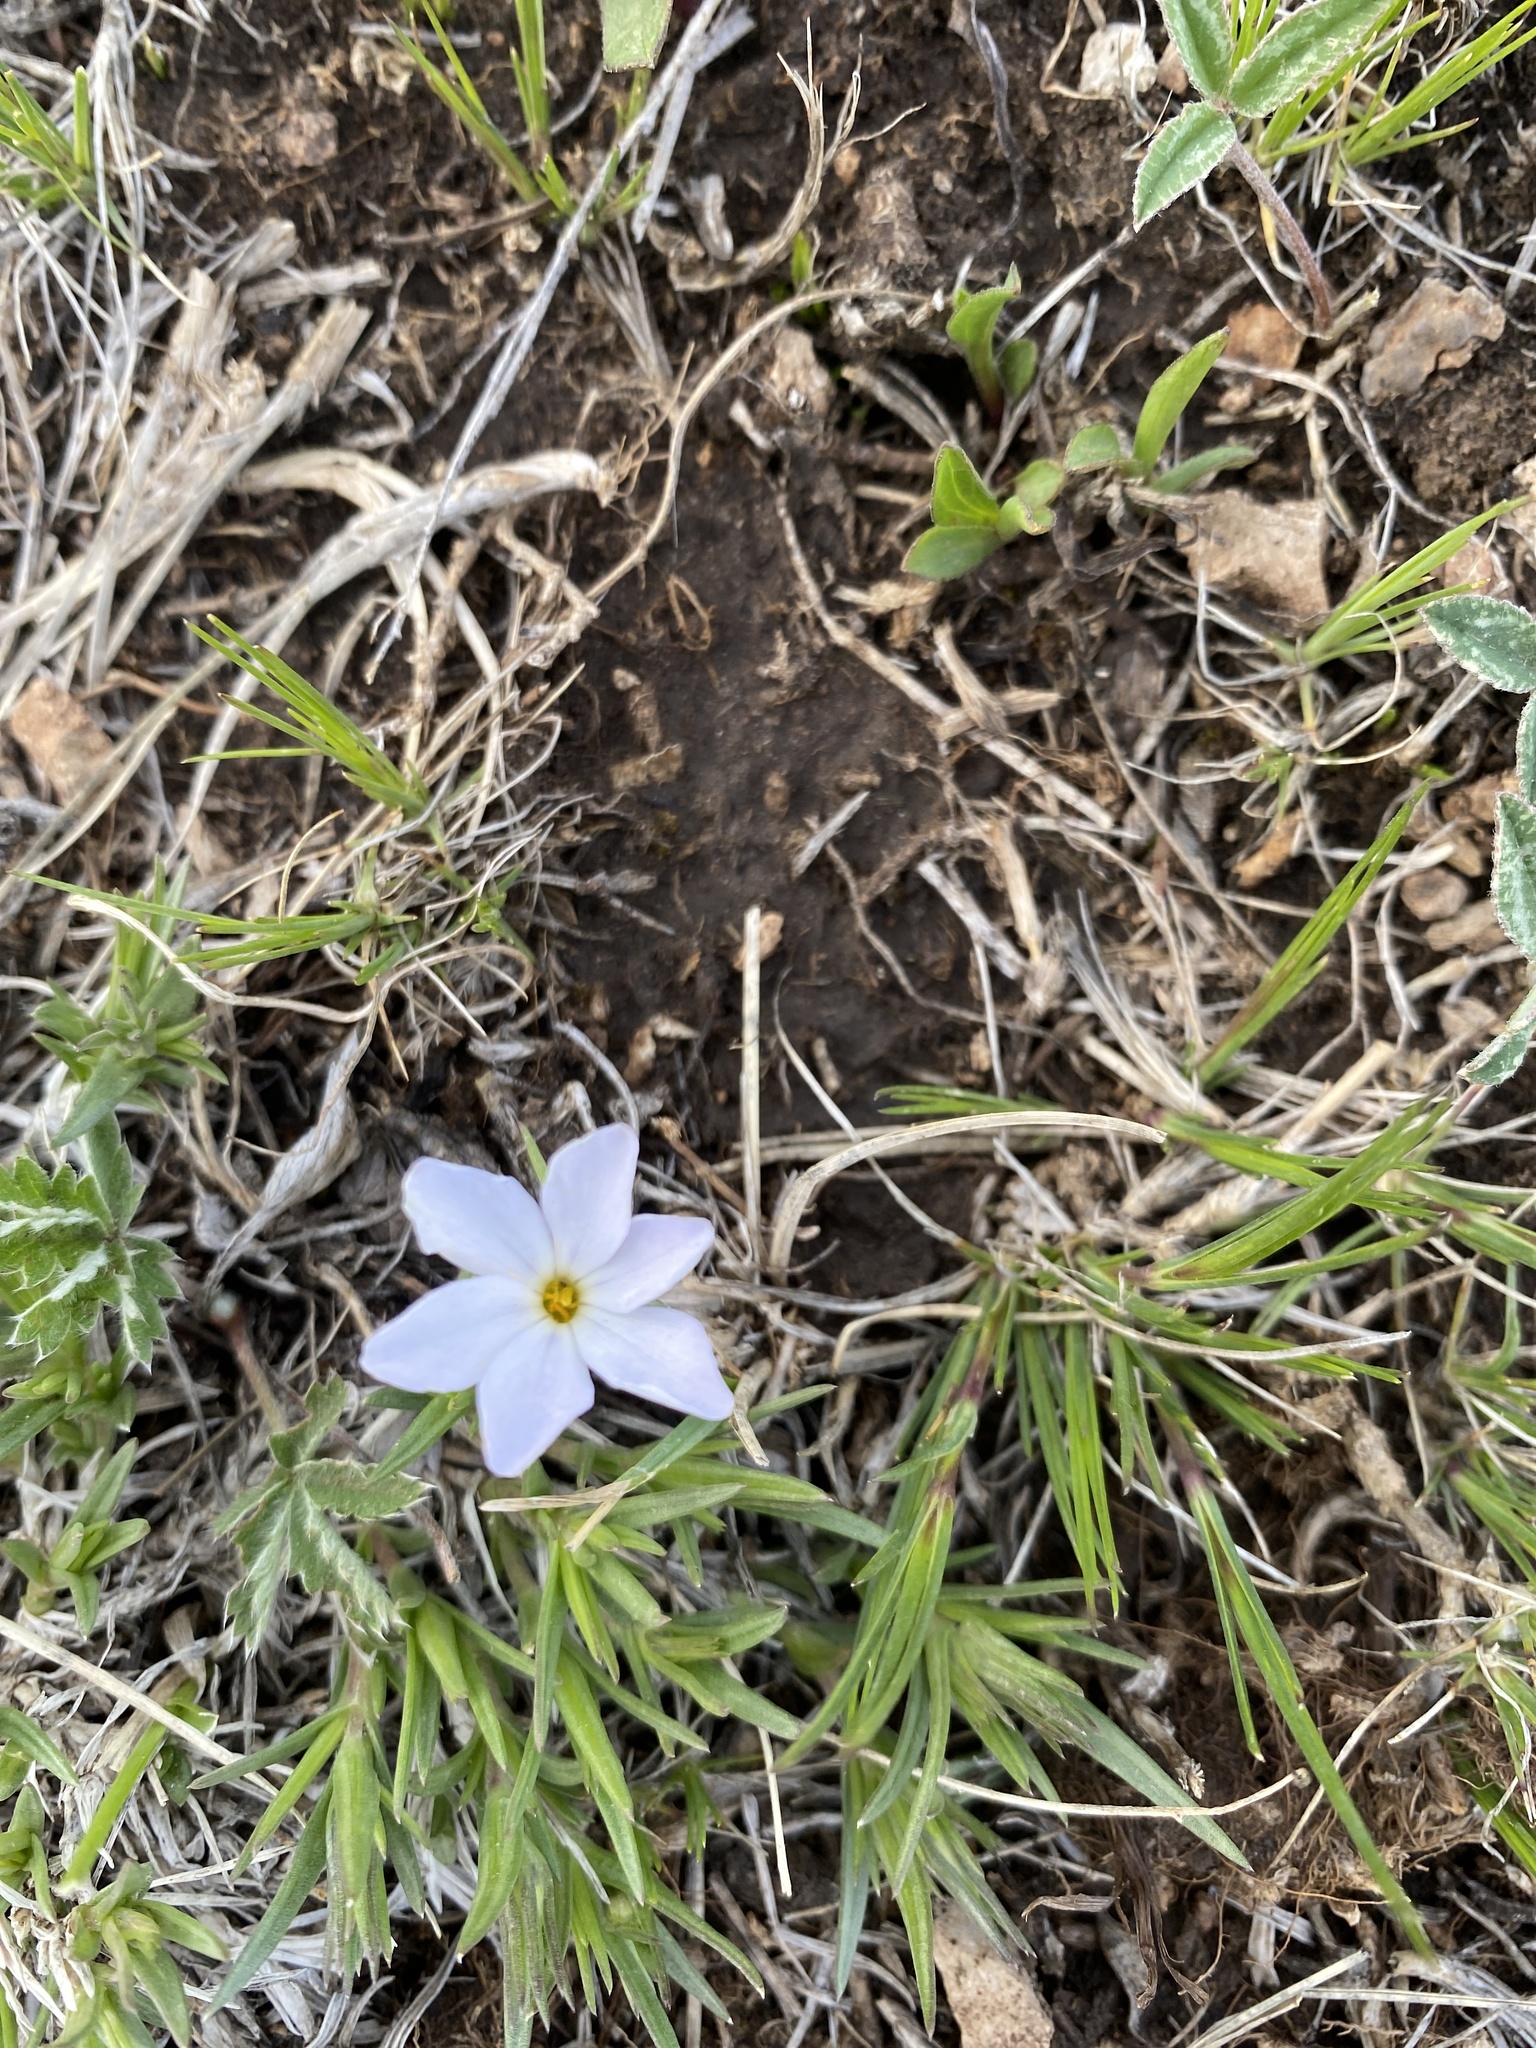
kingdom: Plantae
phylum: Tracheophyta
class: Magnoliopsida
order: Ericales
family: Polemoniaceae
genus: Phlox
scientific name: Phlox multiflora
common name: Rocky mountain phlox
